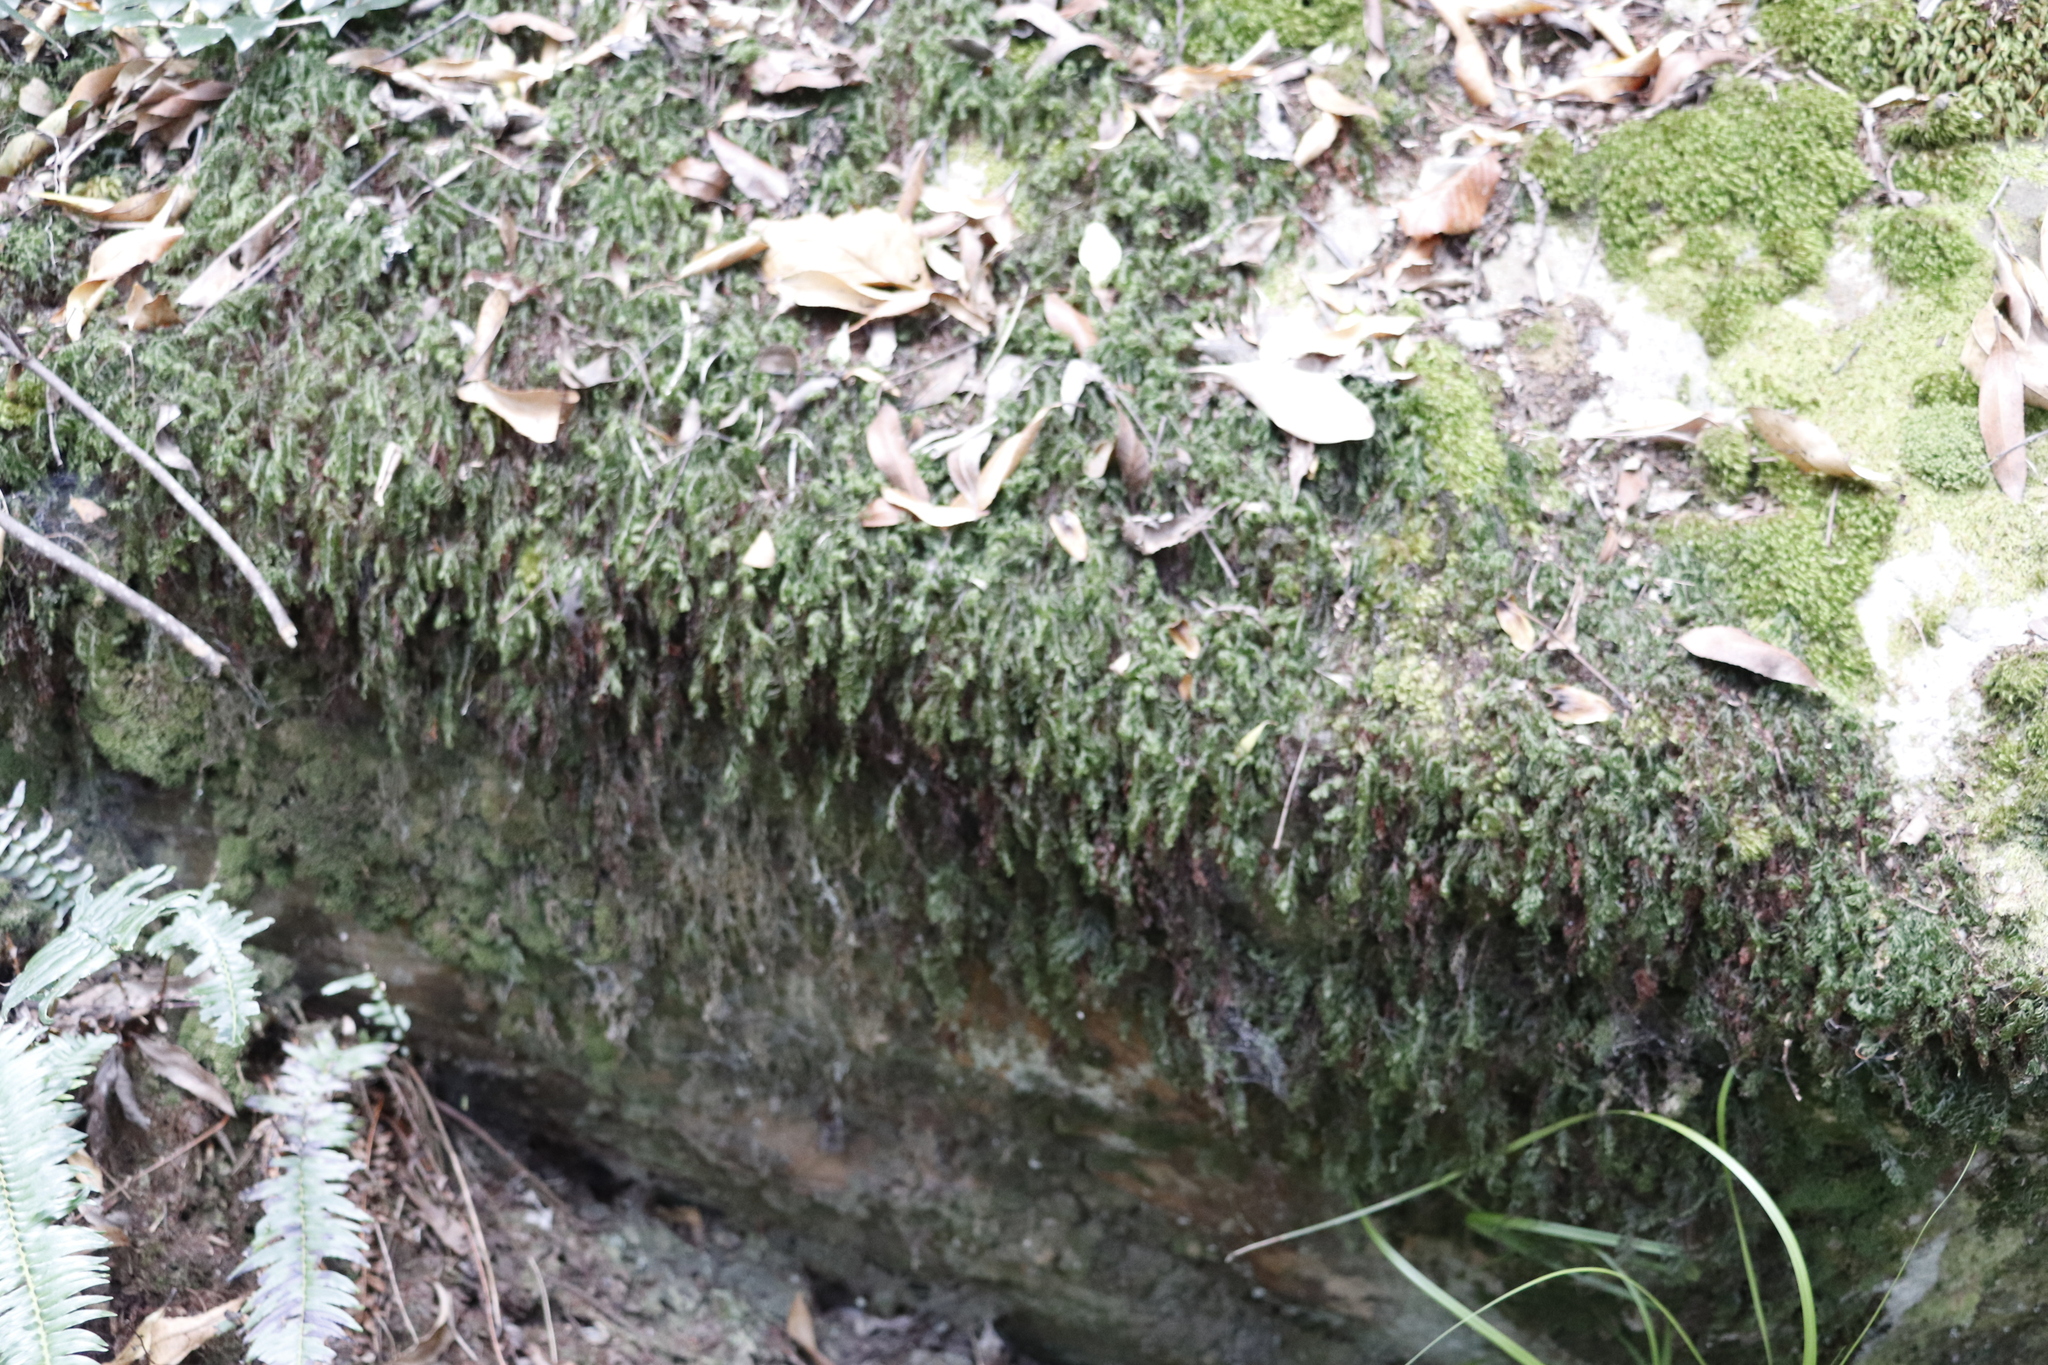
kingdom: Plantae
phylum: Tracheophyta
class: Polypodiopsida
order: Hymenophyllales
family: Hymenophyllaceae
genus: Hymenophyllum
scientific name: Hymenophyllum capense
